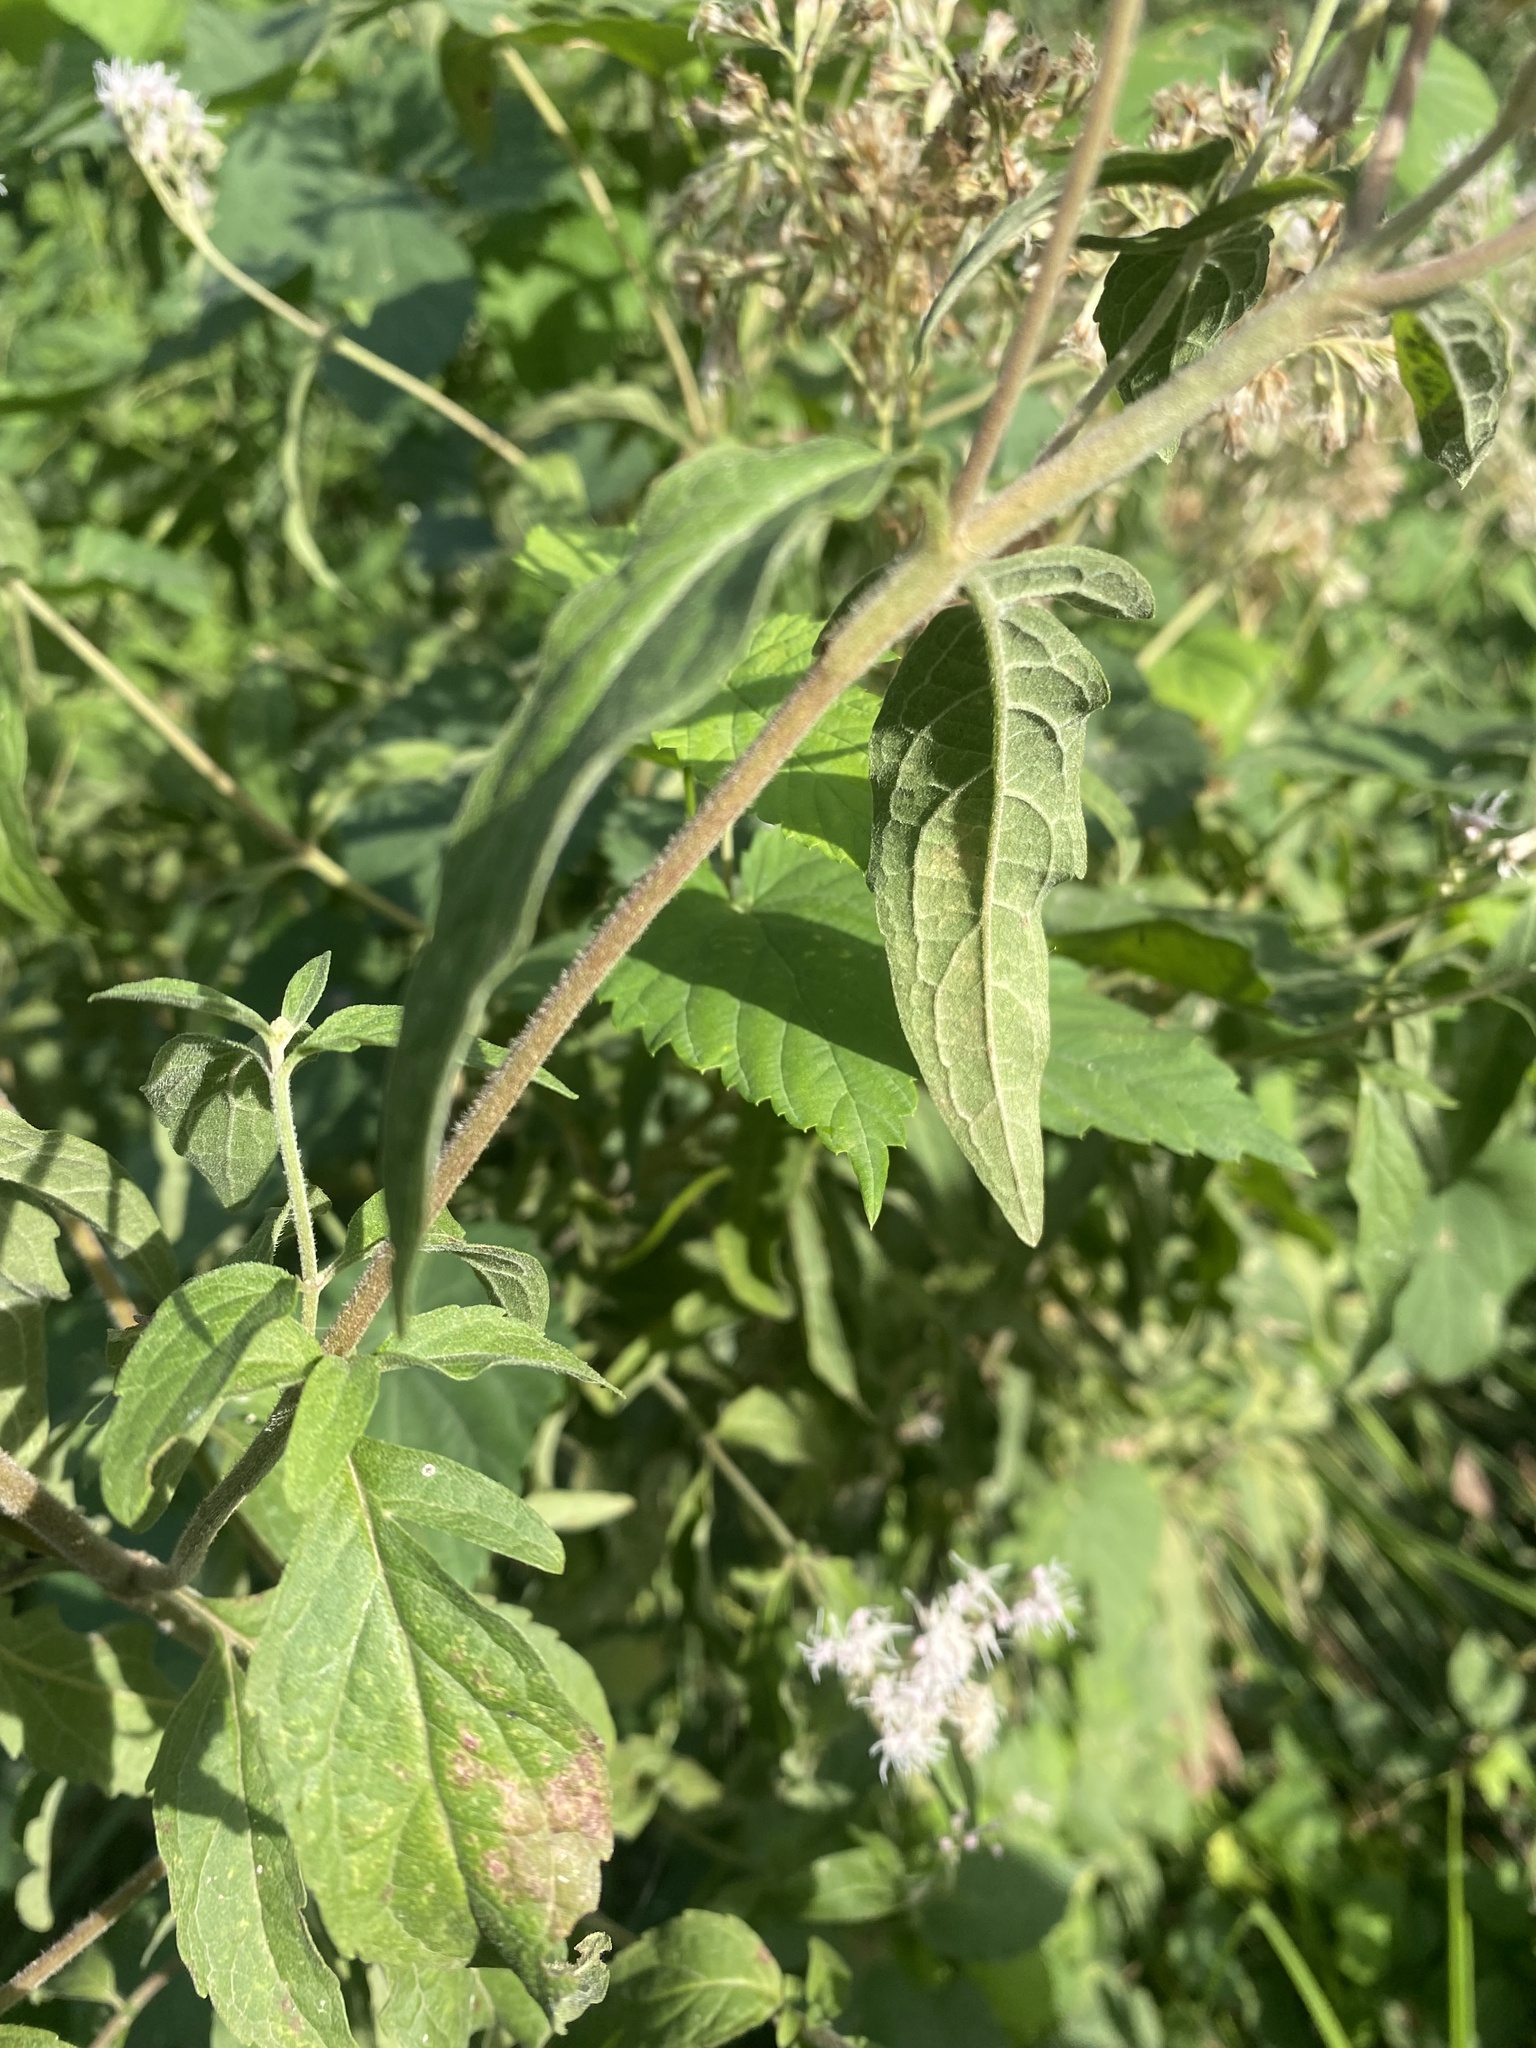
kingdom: Plantae
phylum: Tracheophyta
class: Magnoliopsida
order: Asterales
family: Asteraceae
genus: Eupatorium
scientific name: Eupatorium cannabinum
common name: Hemp-agrimony
